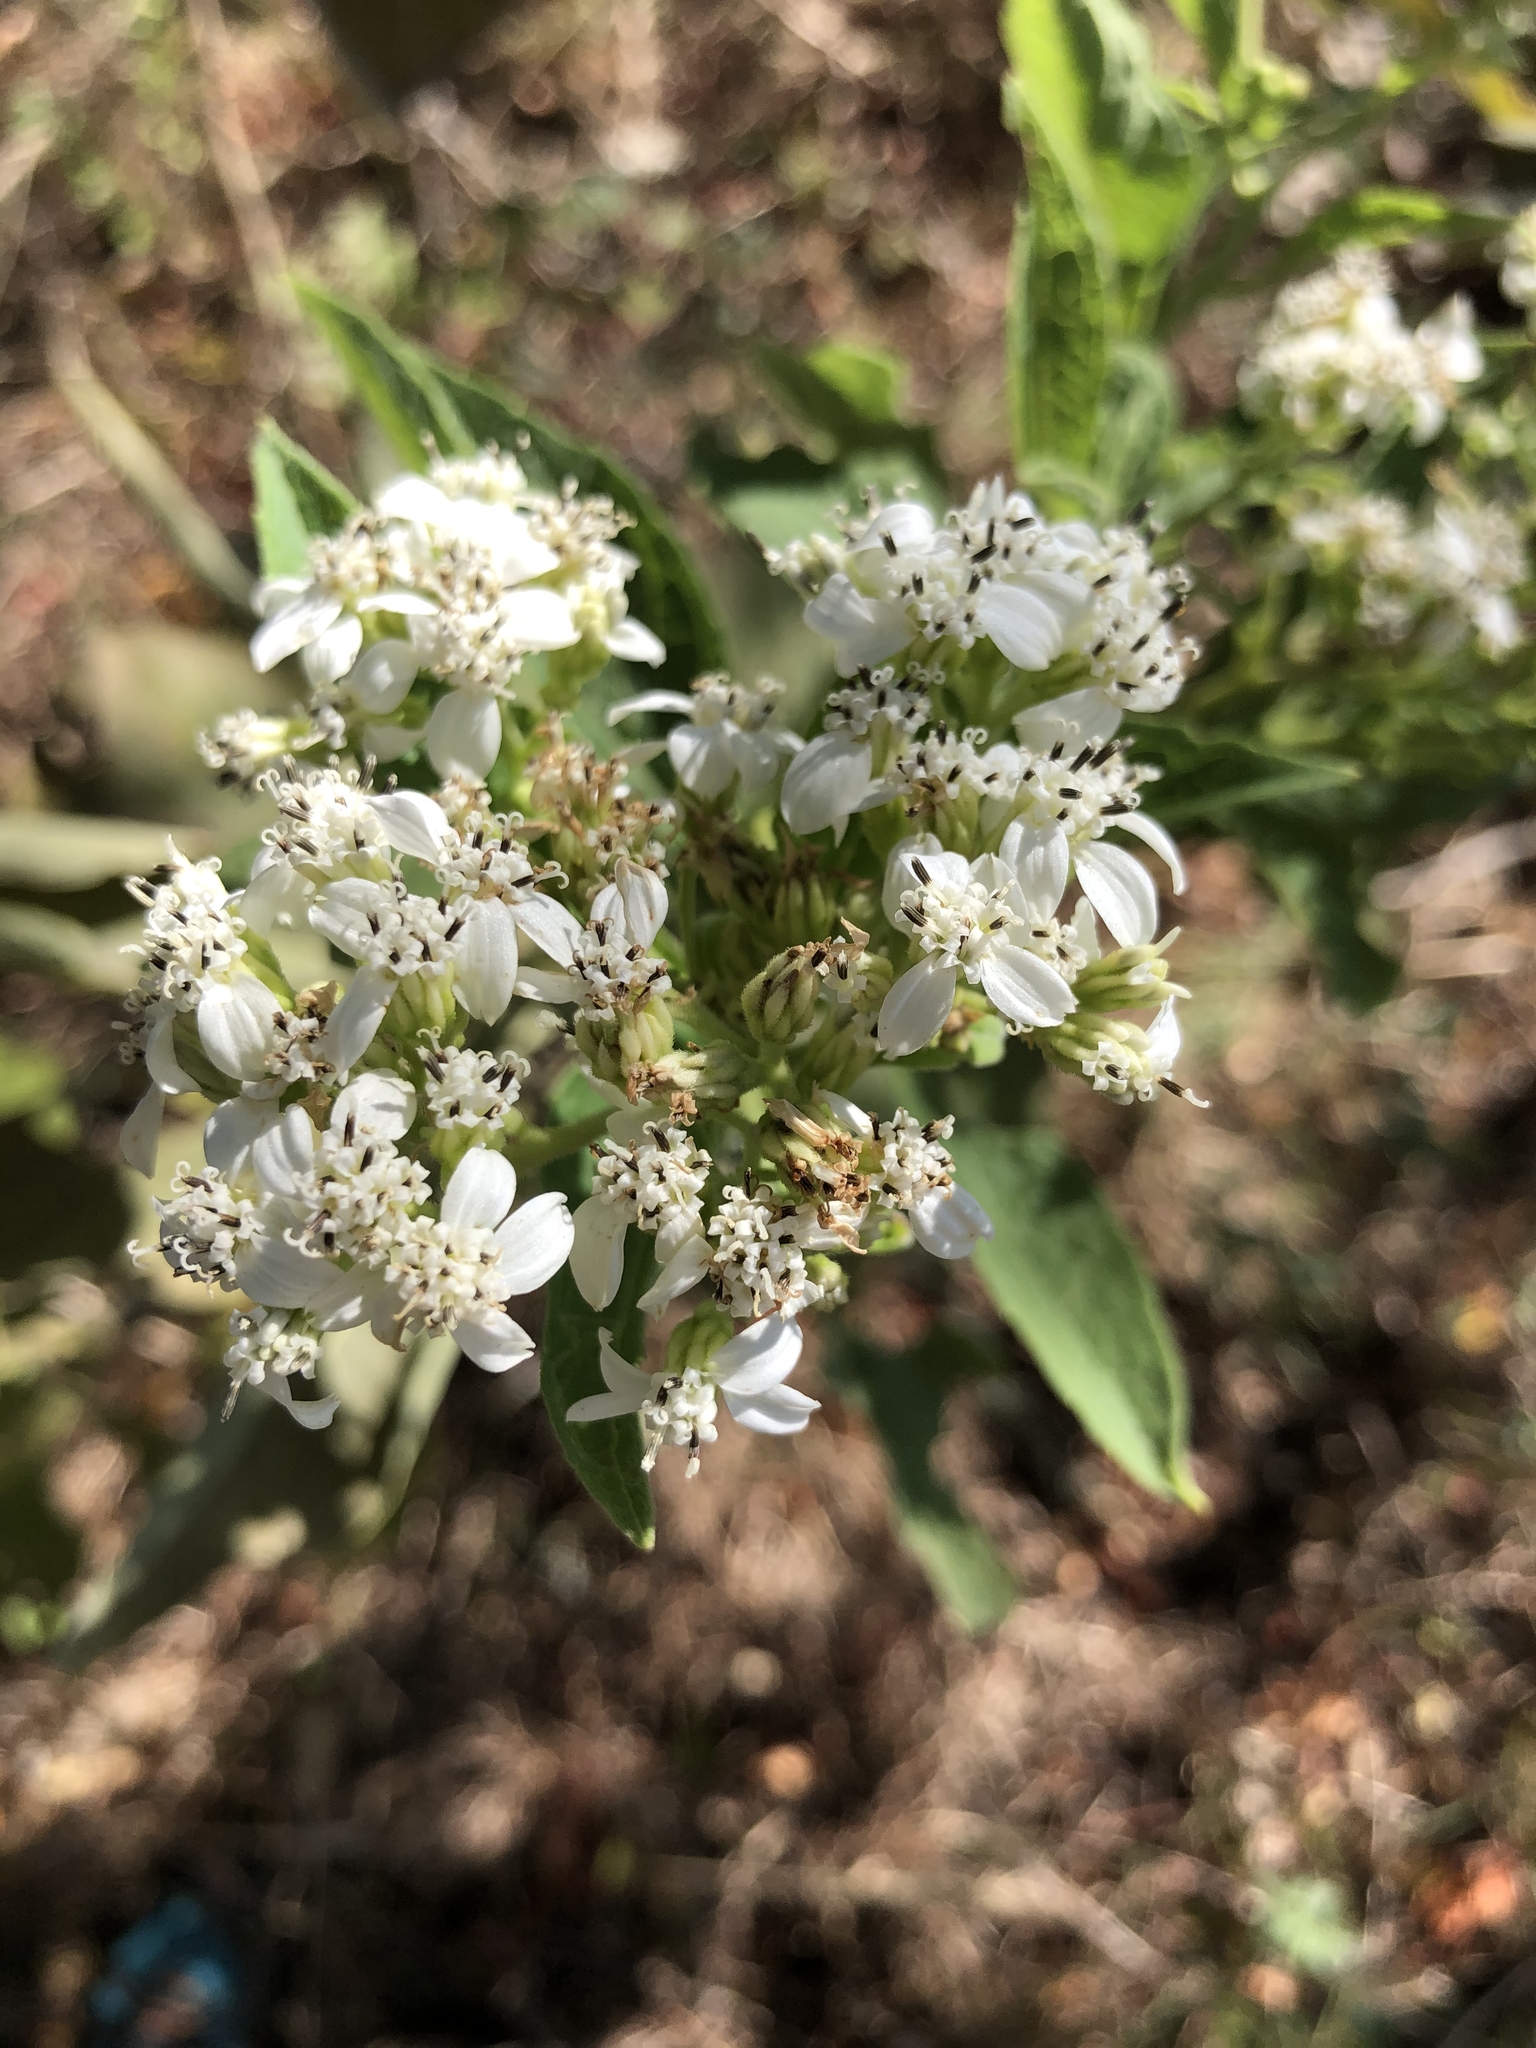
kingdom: Plantae
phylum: Tracheophyta
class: Magnoliopsida
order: Asterales
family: Asteraceae
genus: Verbesina
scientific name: Verbesina virginica
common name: Frostweed
